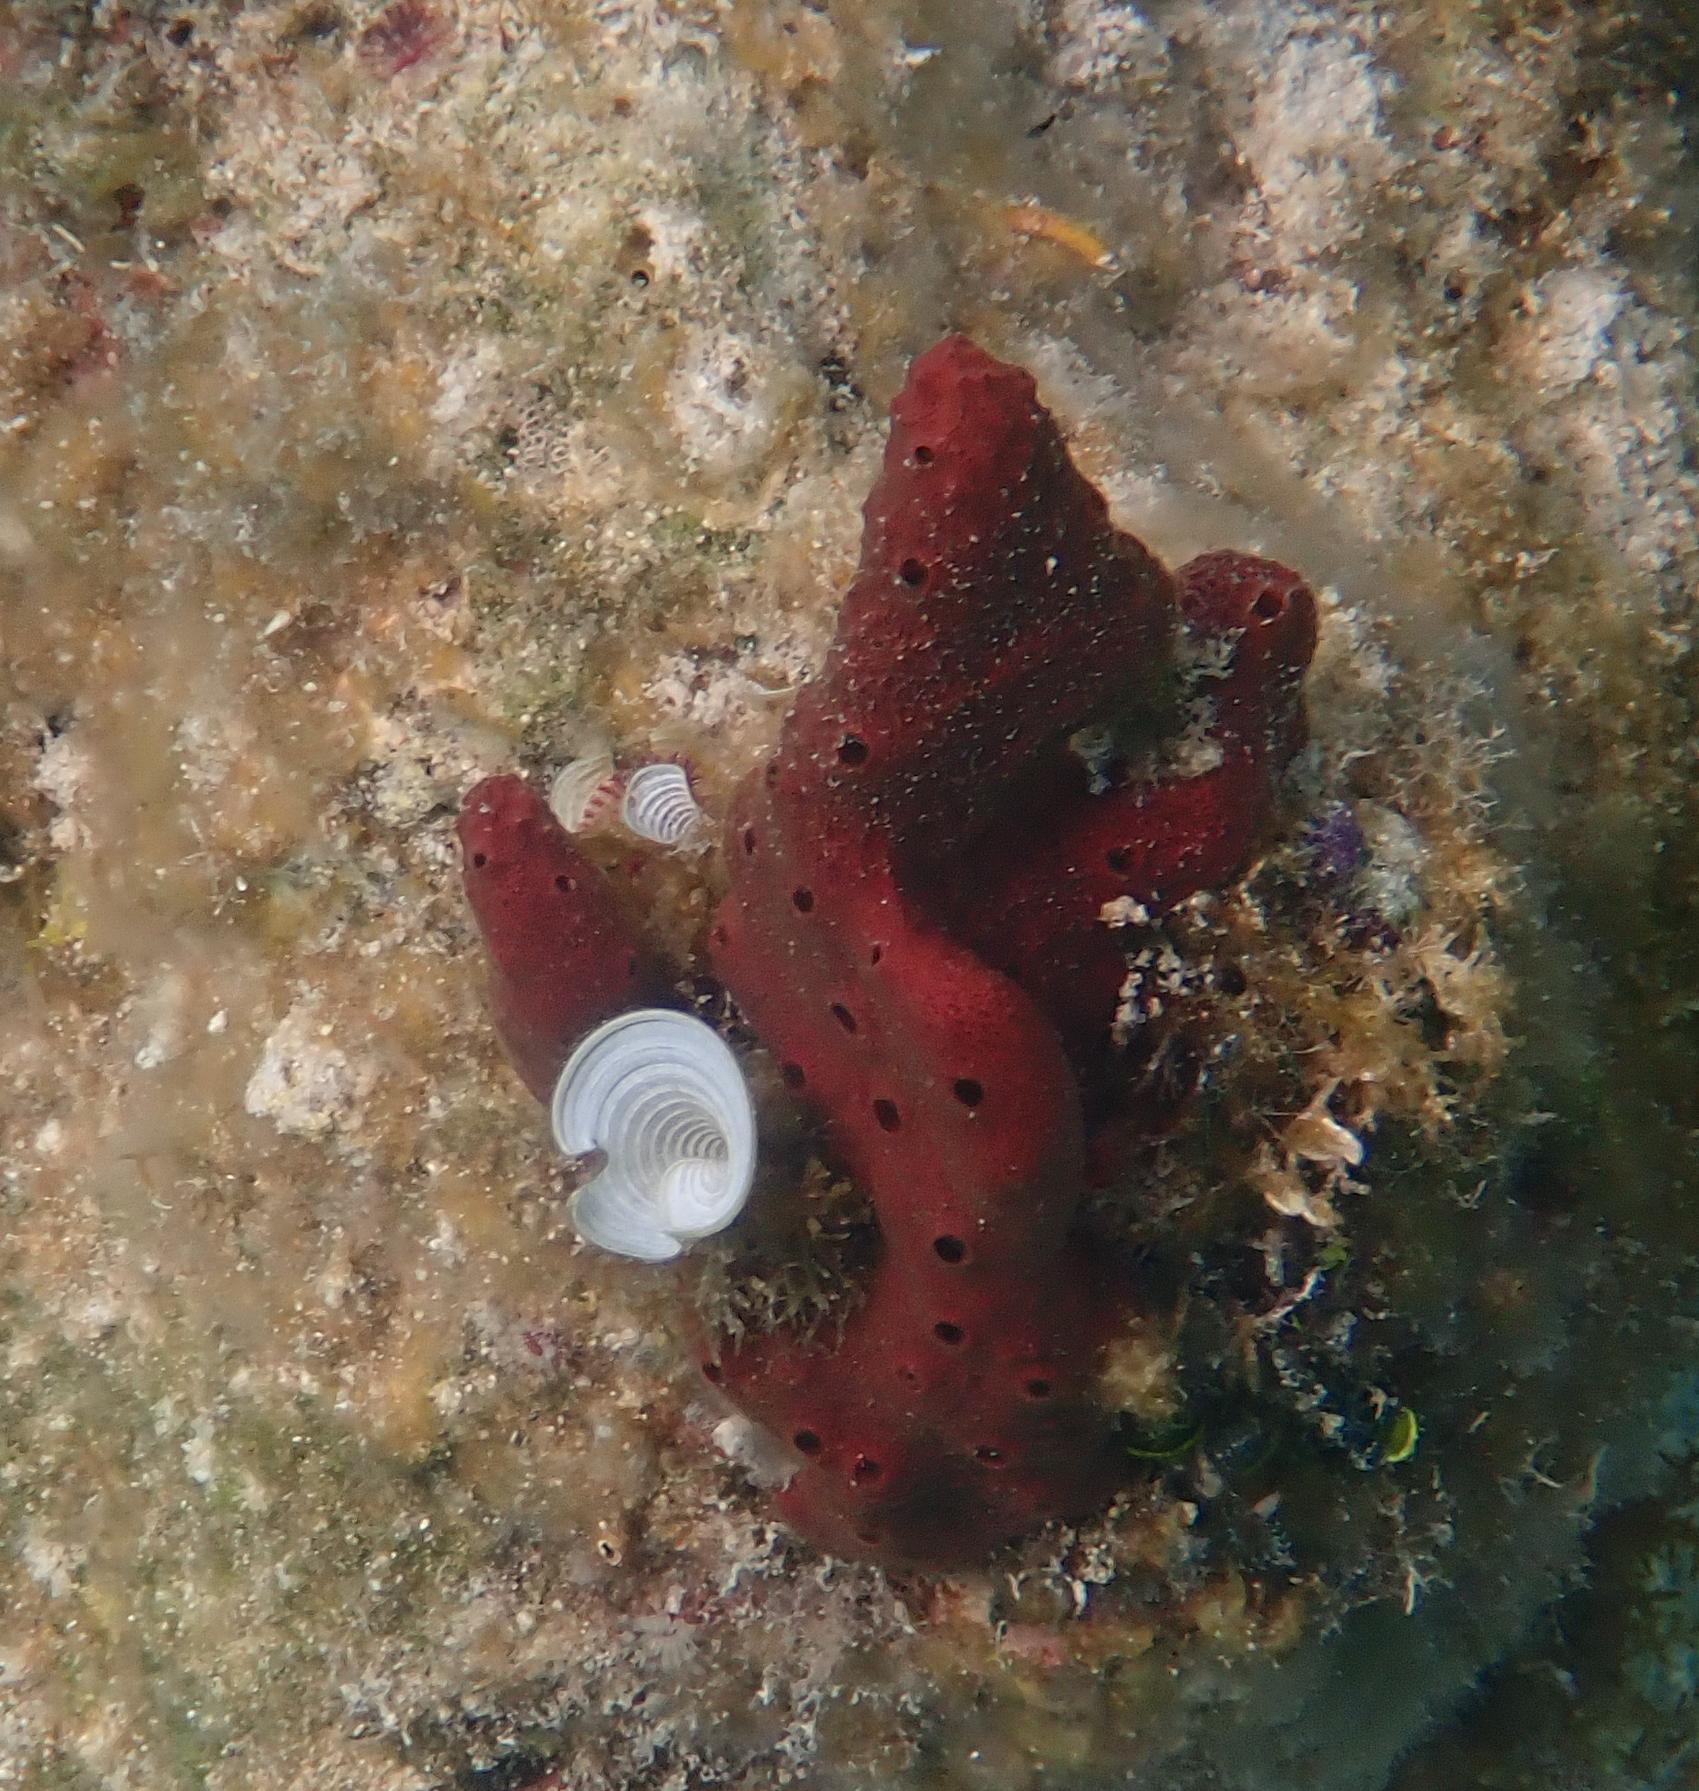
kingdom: Animalia
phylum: Porifera
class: Demospongiae
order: Haplosclerida
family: Niphatidae
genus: Amphimedon
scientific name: Amphimedon compressa
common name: Red sponge
